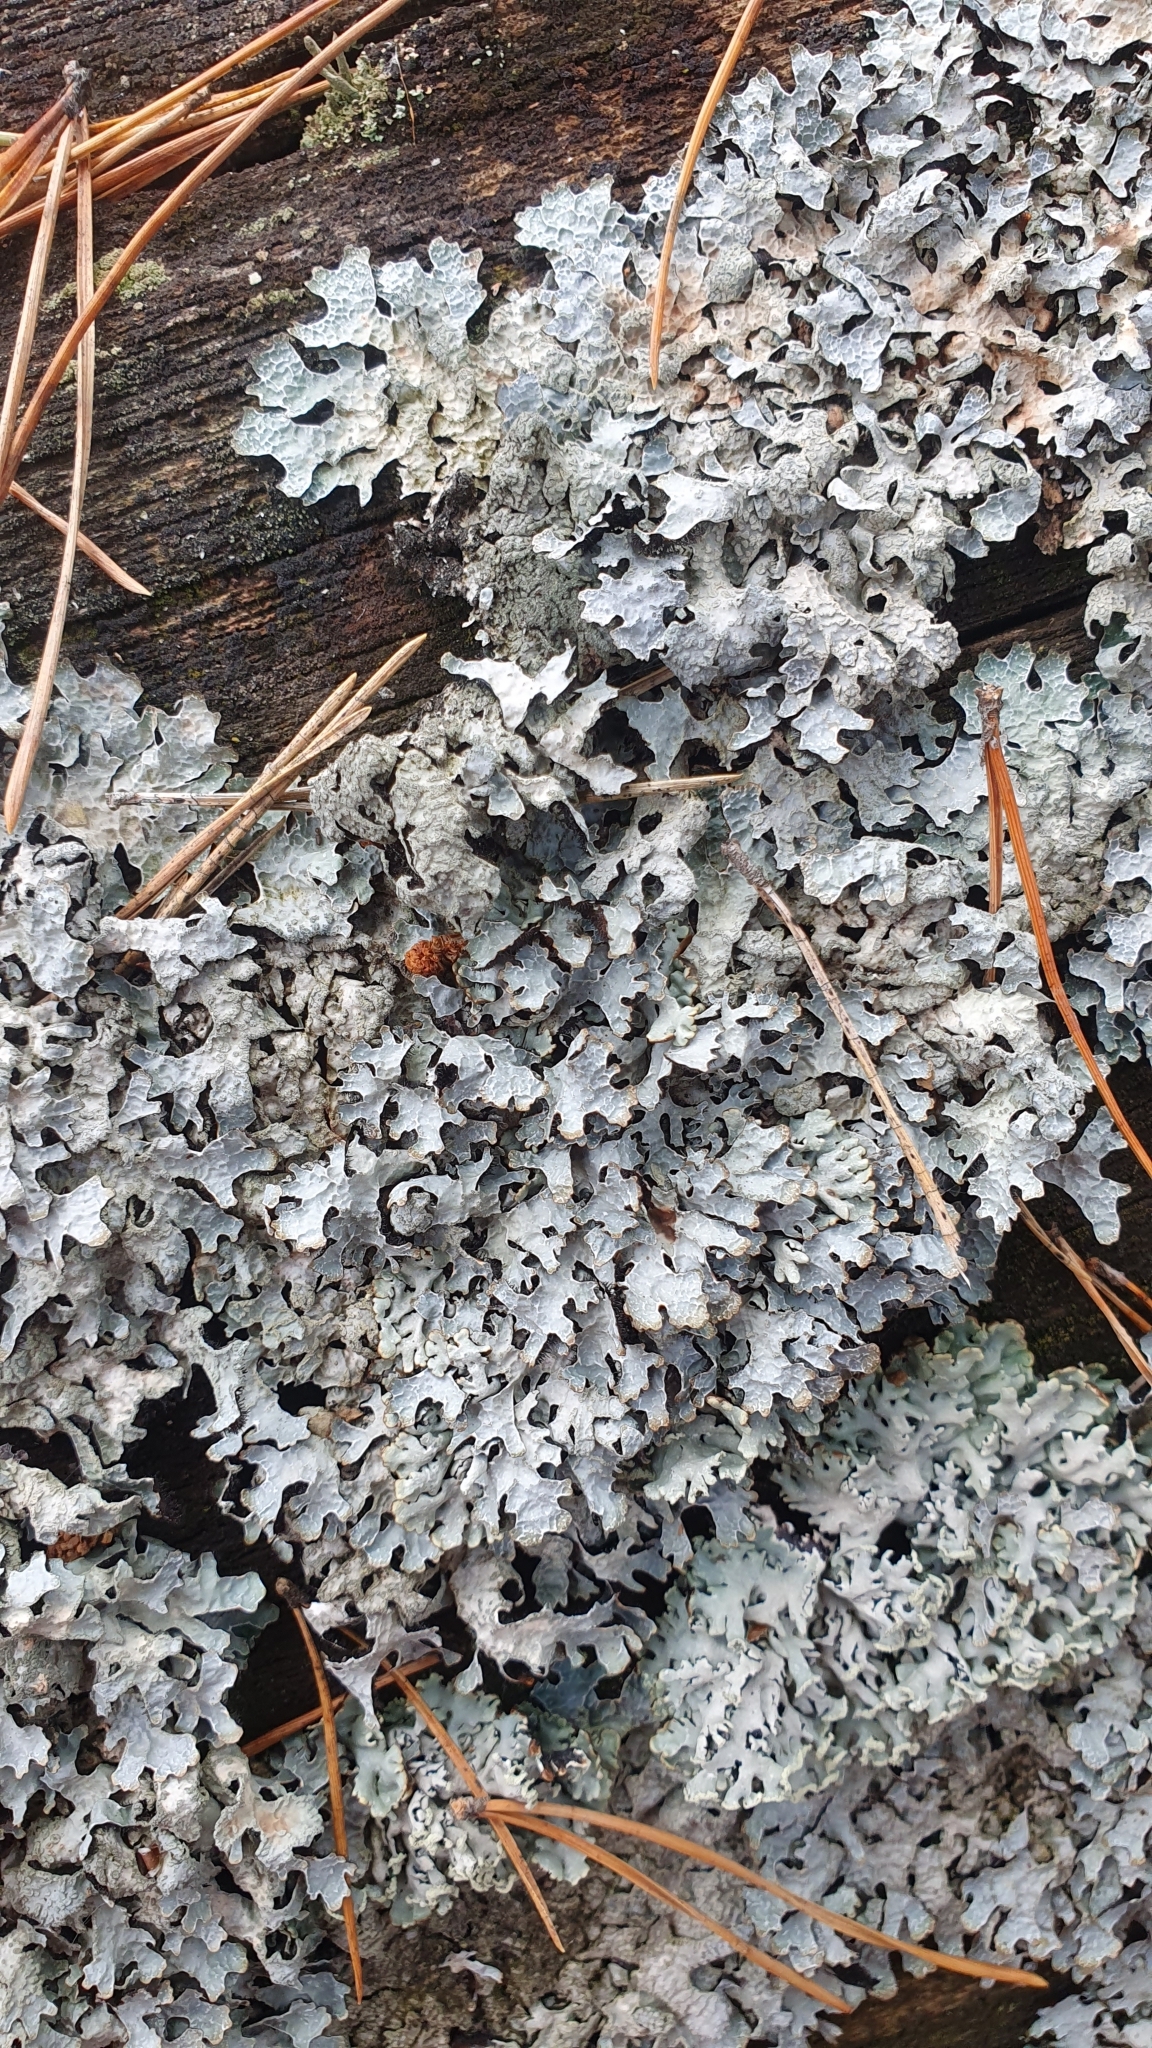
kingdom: Fungi
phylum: Ascomycota
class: Lecanoromycetes
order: Lecanorales
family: Parmeliaceae
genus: Parmelia
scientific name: Parmelia sulcata
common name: Netted shield lichen
